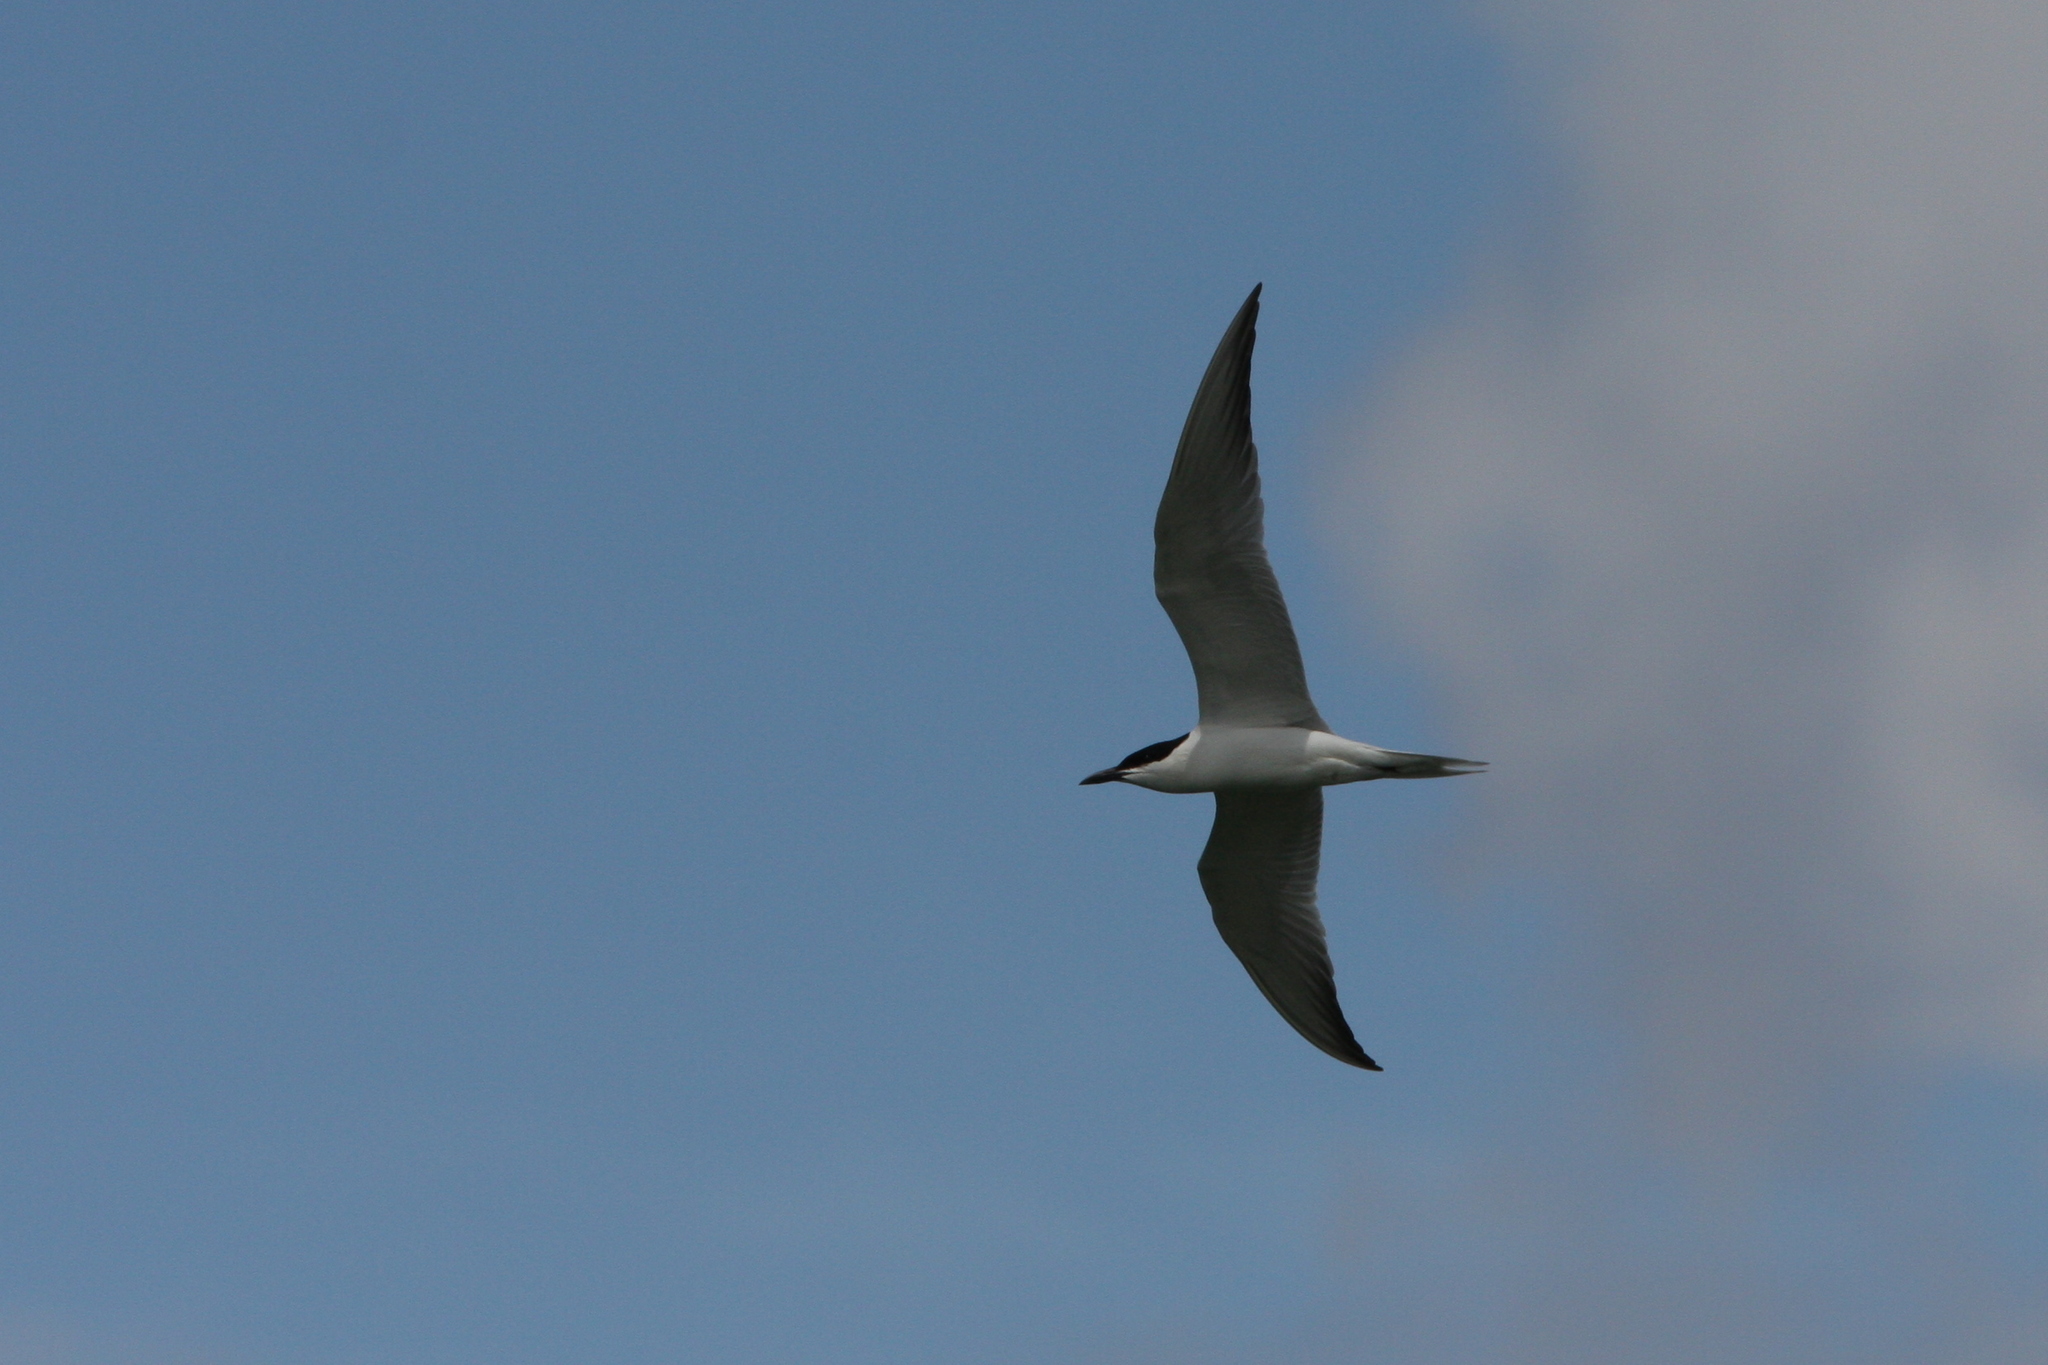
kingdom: Animalia
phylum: Chordata
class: Aves
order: Charadriiformes
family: Laridae
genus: Gelochelidon
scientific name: Gelochelidon nilotica
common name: Gull-billed tern
